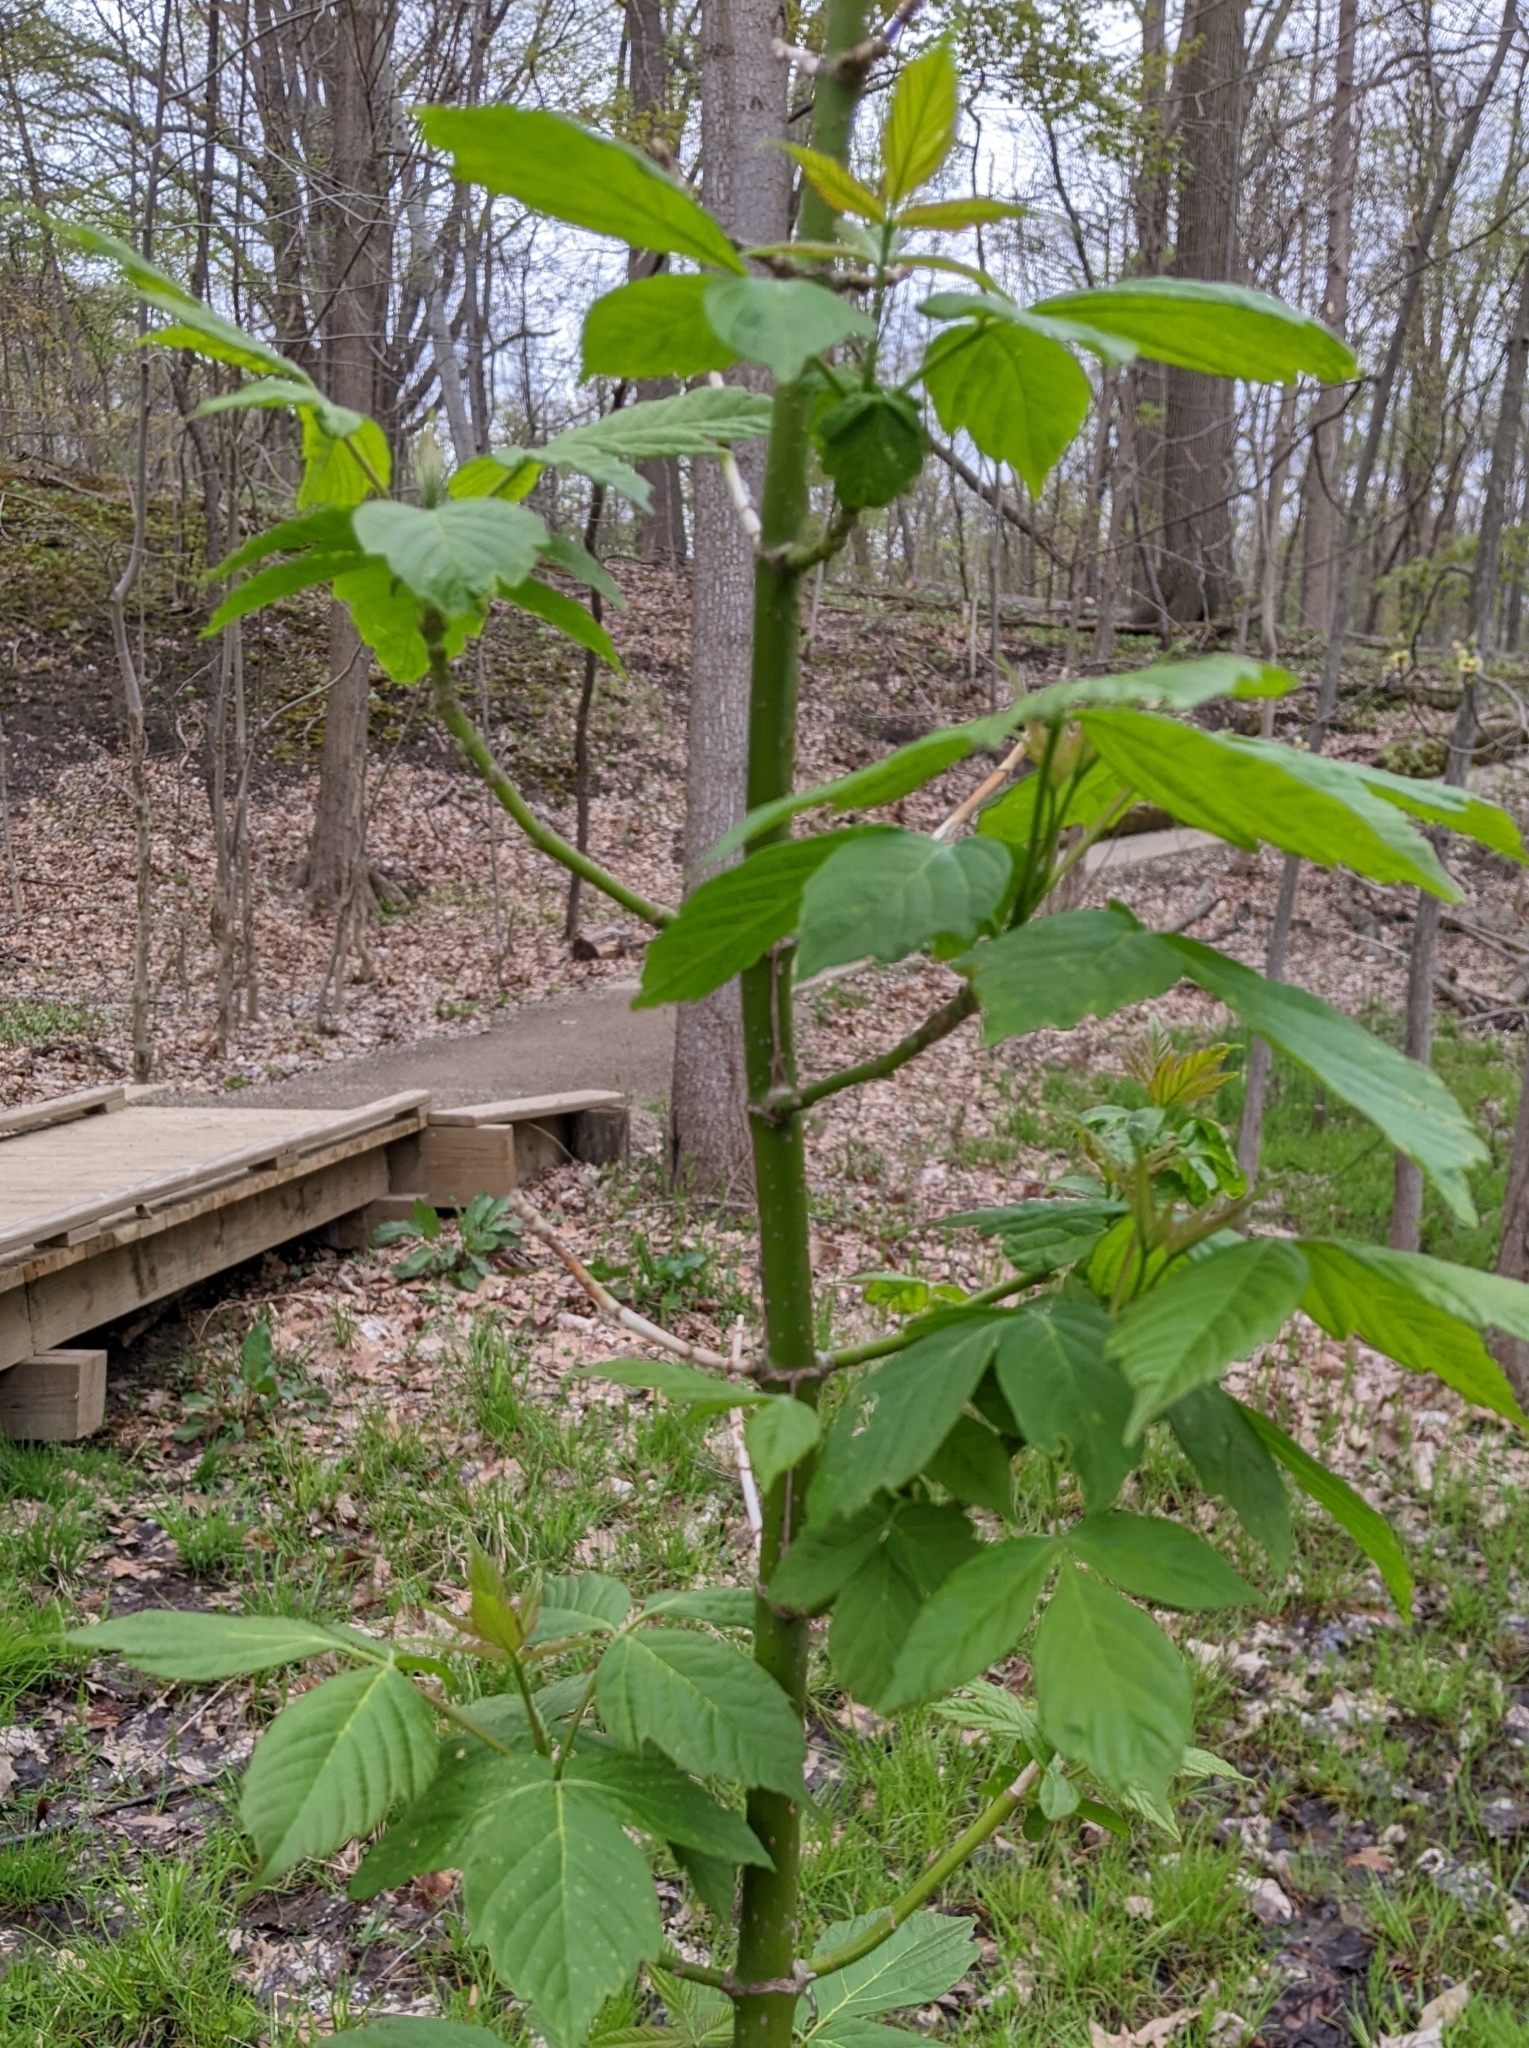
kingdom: Plantae
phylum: Tracheophyta
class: Magnoliopsida
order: Sapindales
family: Sapindaceae
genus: Acer
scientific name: Acer negundo
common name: Ashleaf maple
